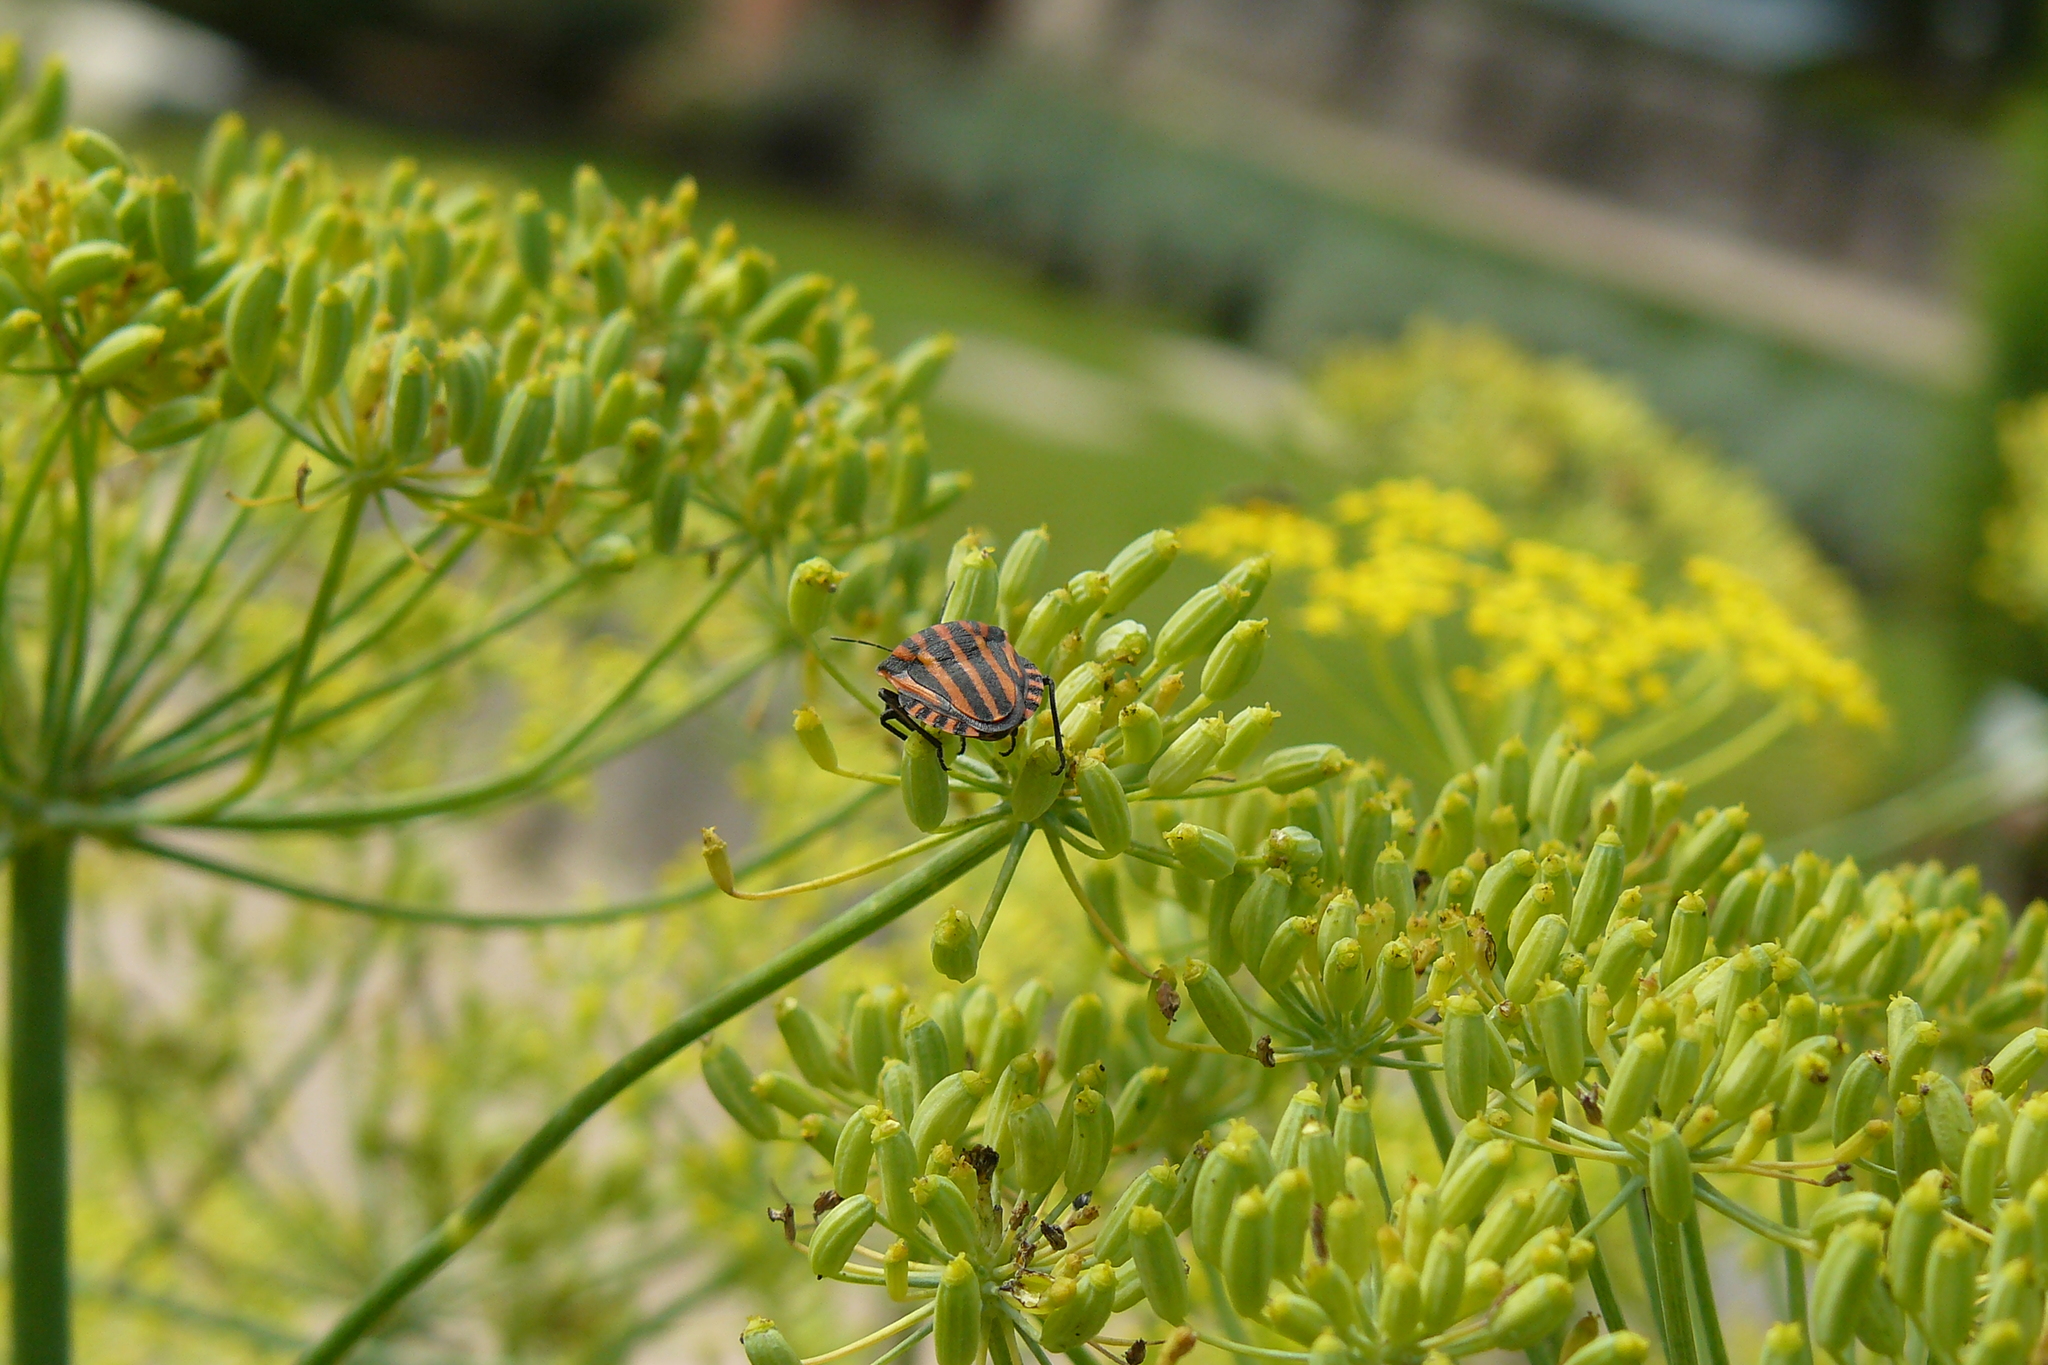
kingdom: Animalia
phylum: Arthropoda
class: Insecta
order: Hemiptera
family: Pentatomidae
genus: Graphosoma
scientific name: Graphosoma italicum
